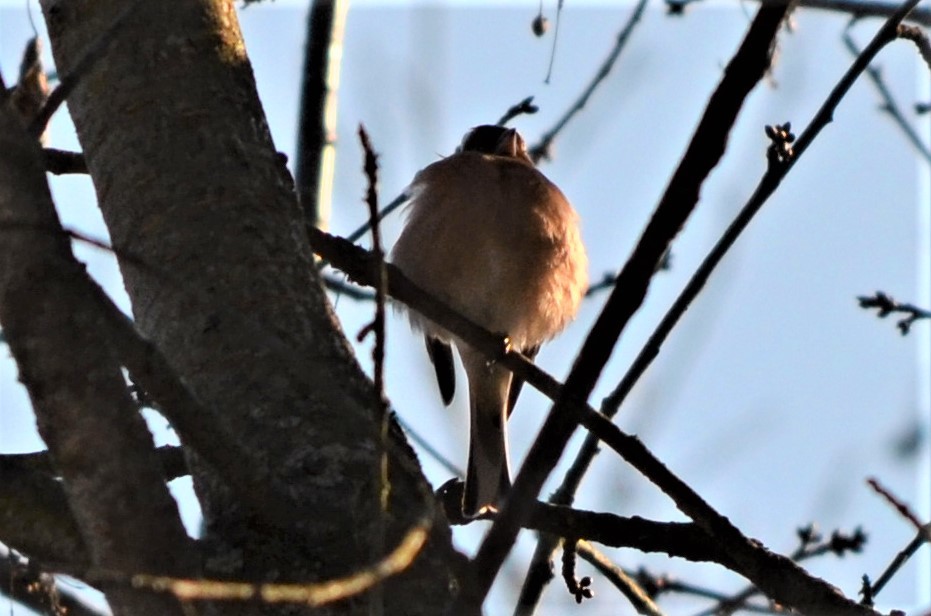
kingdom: Animalia
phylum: Chordata
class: Aves
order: Passeriformes
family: Fringillidae
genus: Fringilla
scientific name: Fringilla coelebs
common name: Common chaffinch
